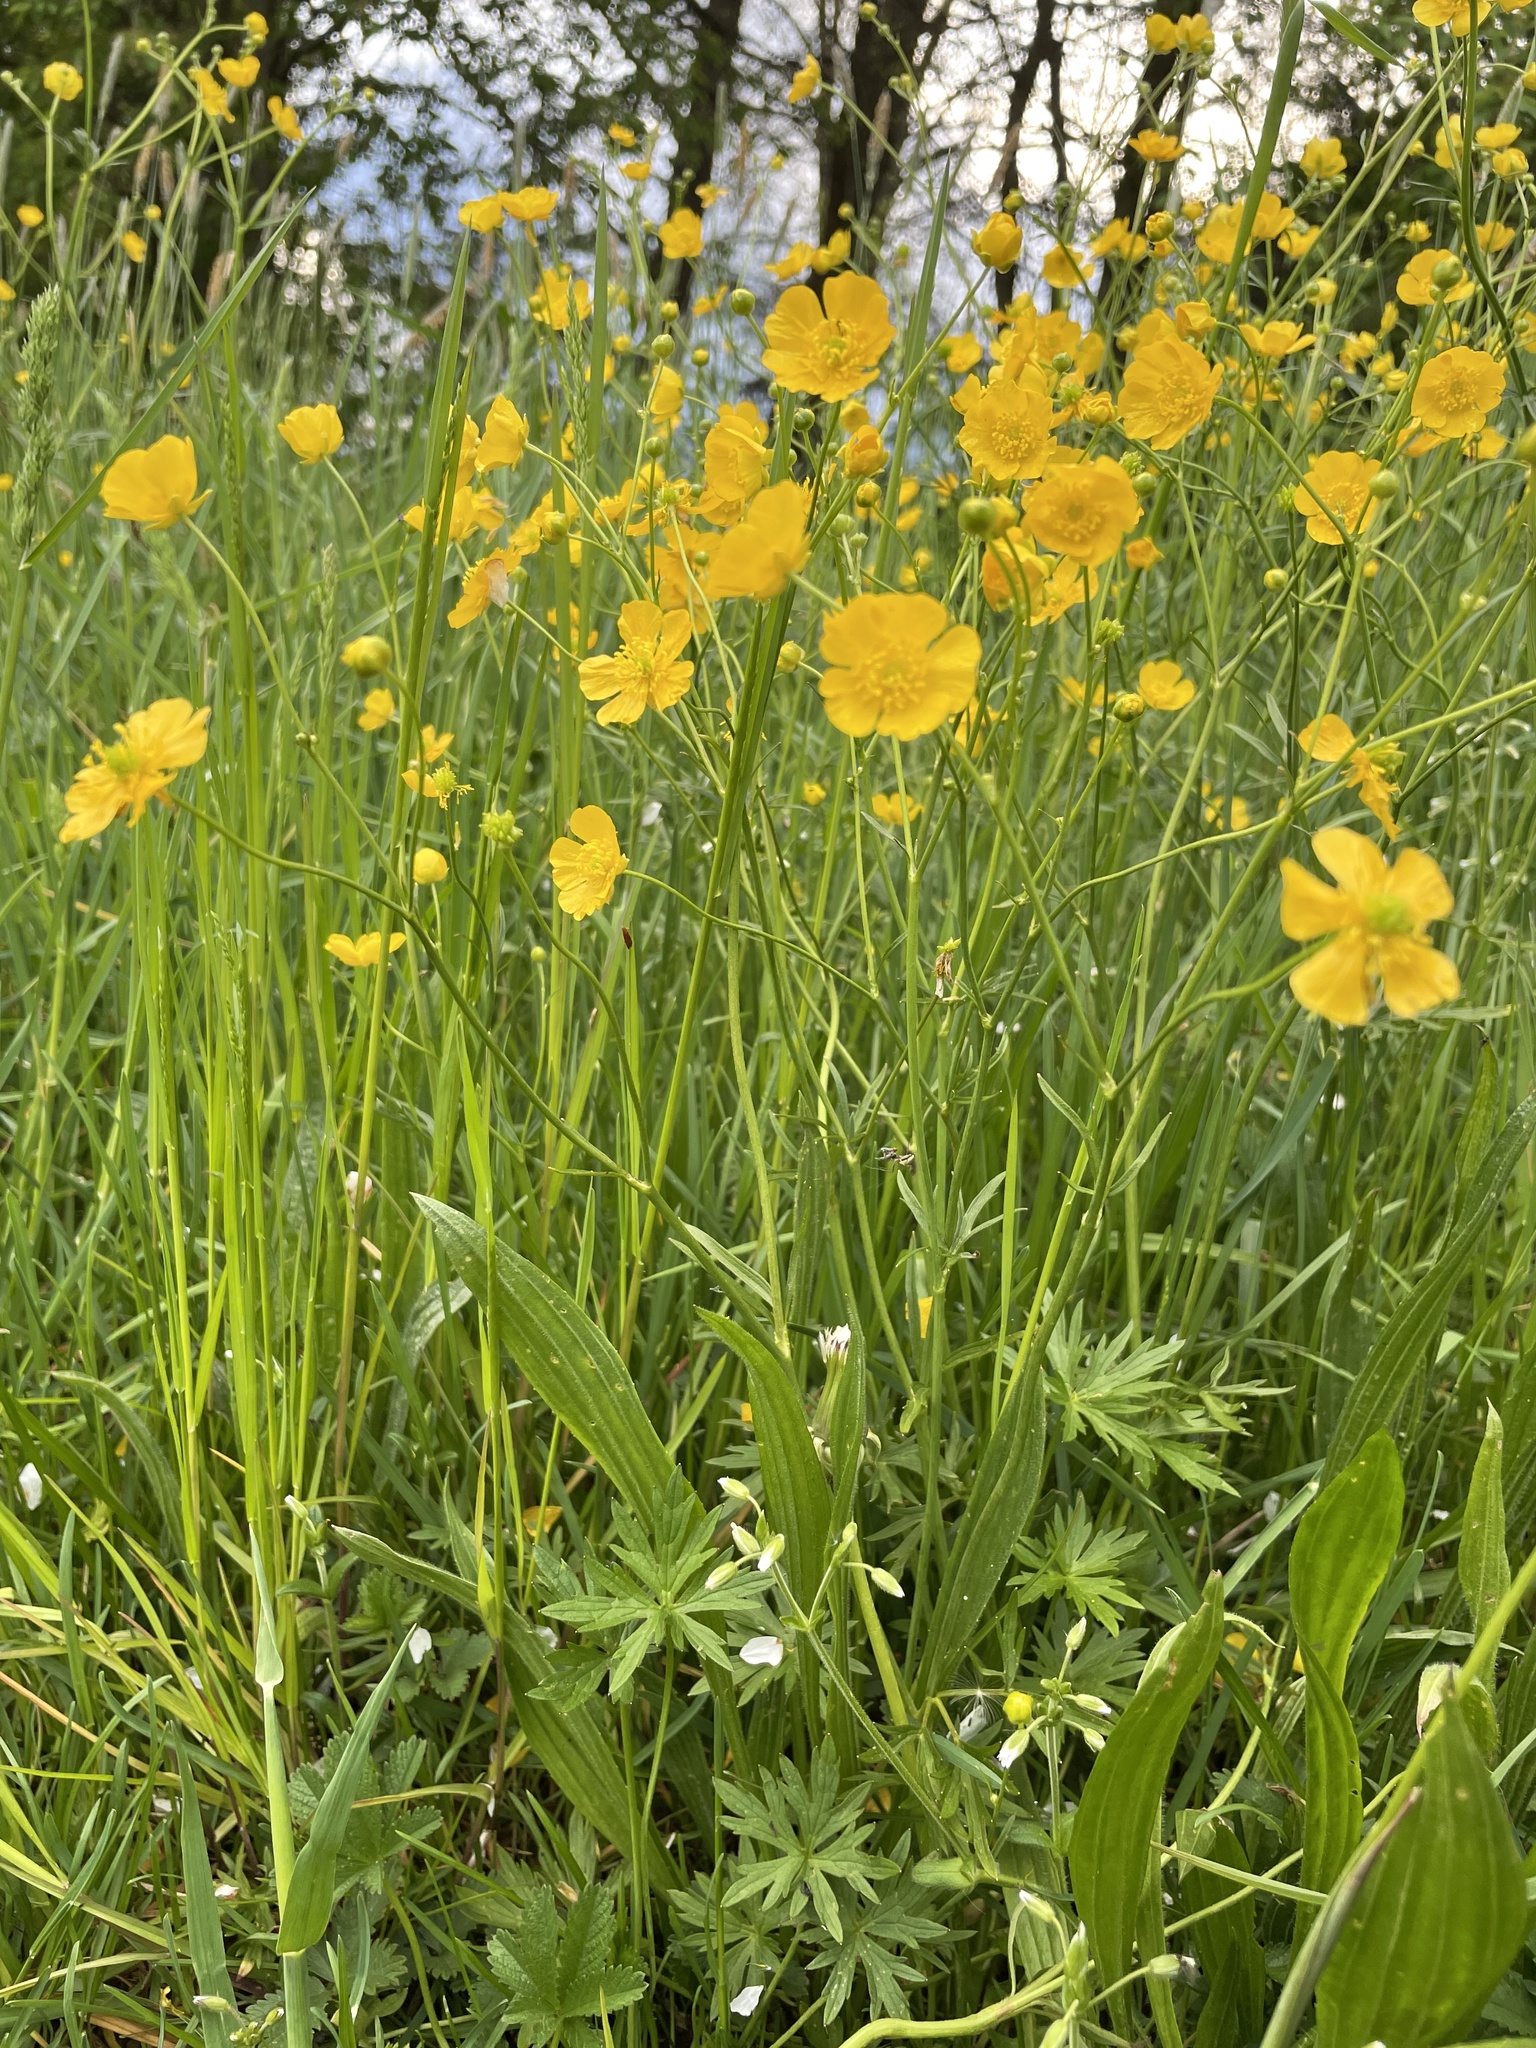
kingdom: Plantae
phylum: Tracheophyta
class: Magnoliopsida
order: Ranunculales
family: Ranunculaceae
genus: Ranunculus
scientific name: Ranunculus acris
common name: Meadow buttercup
